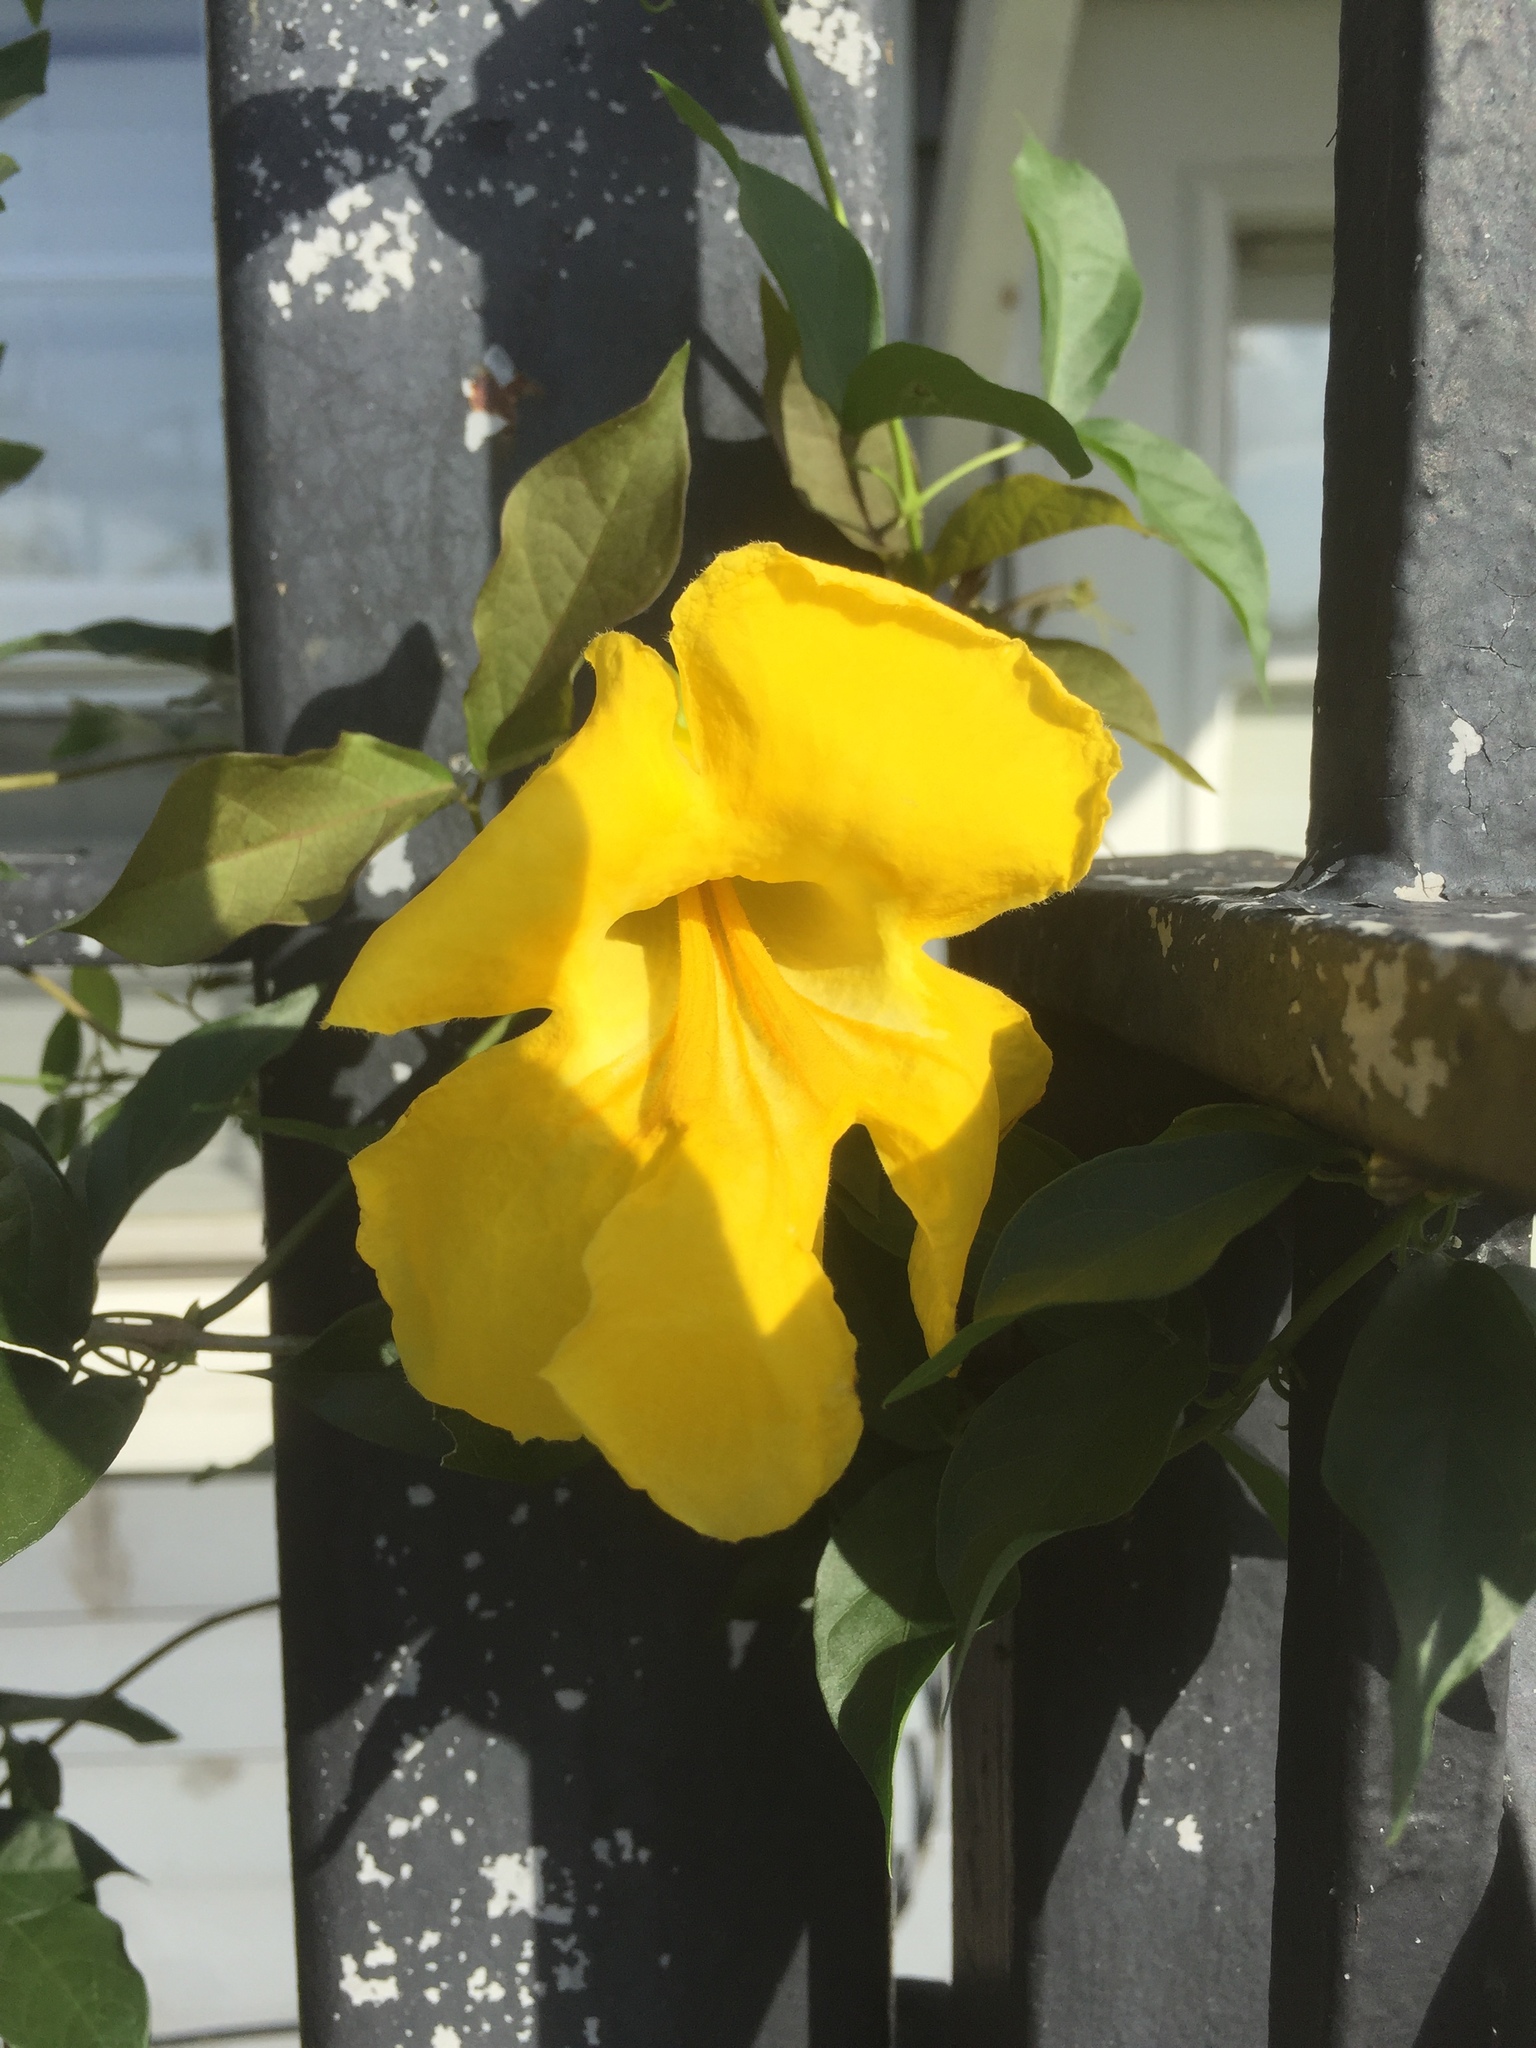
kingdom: Plantae
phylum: Tracheophyta
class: Magnoliopsida
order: Gentianales
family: Gelsemiaceae
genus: Gelsemium
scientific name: Gelsemium sempervirens
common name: Carolina-jasmine
